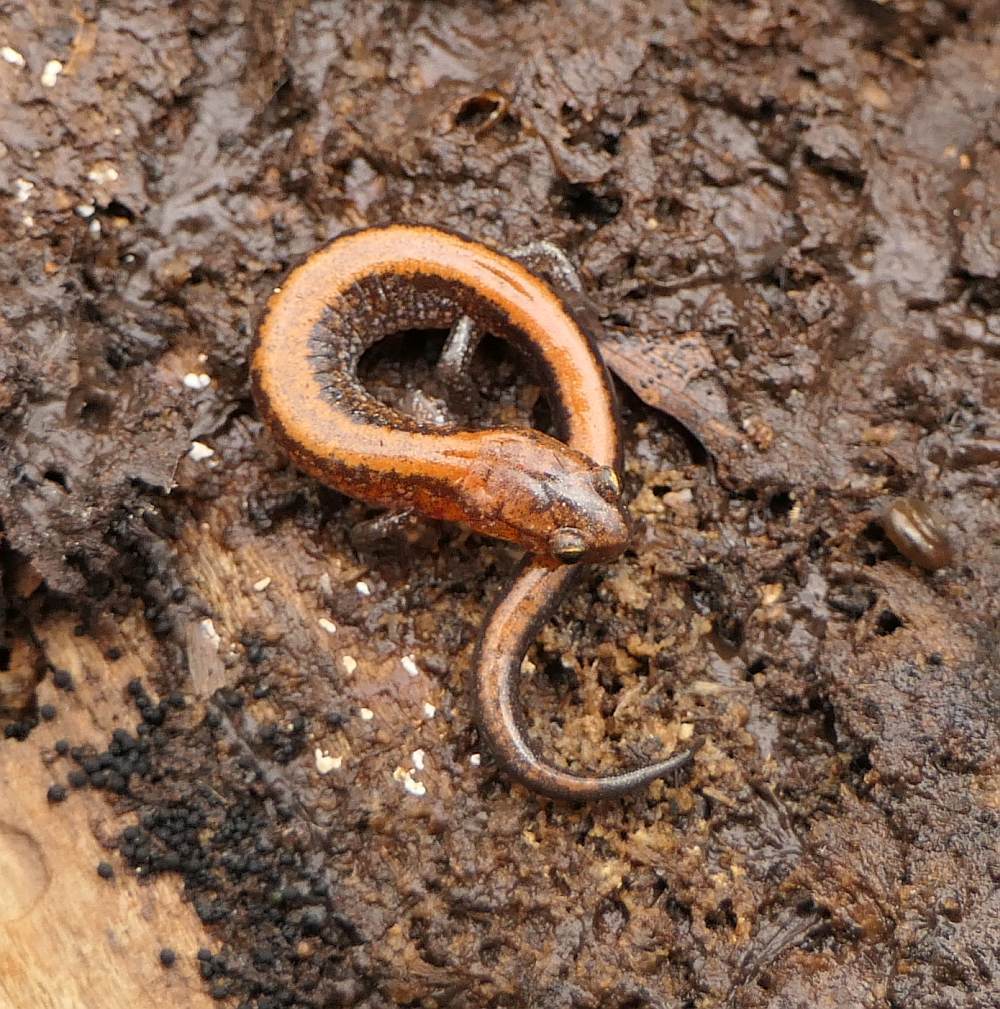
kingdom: Animalia
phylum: Chordata
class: Amphibia
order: Caudata
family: Plethodontidae
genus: Plethodon
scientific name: Plethodon cinereus
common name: Redback salamander
